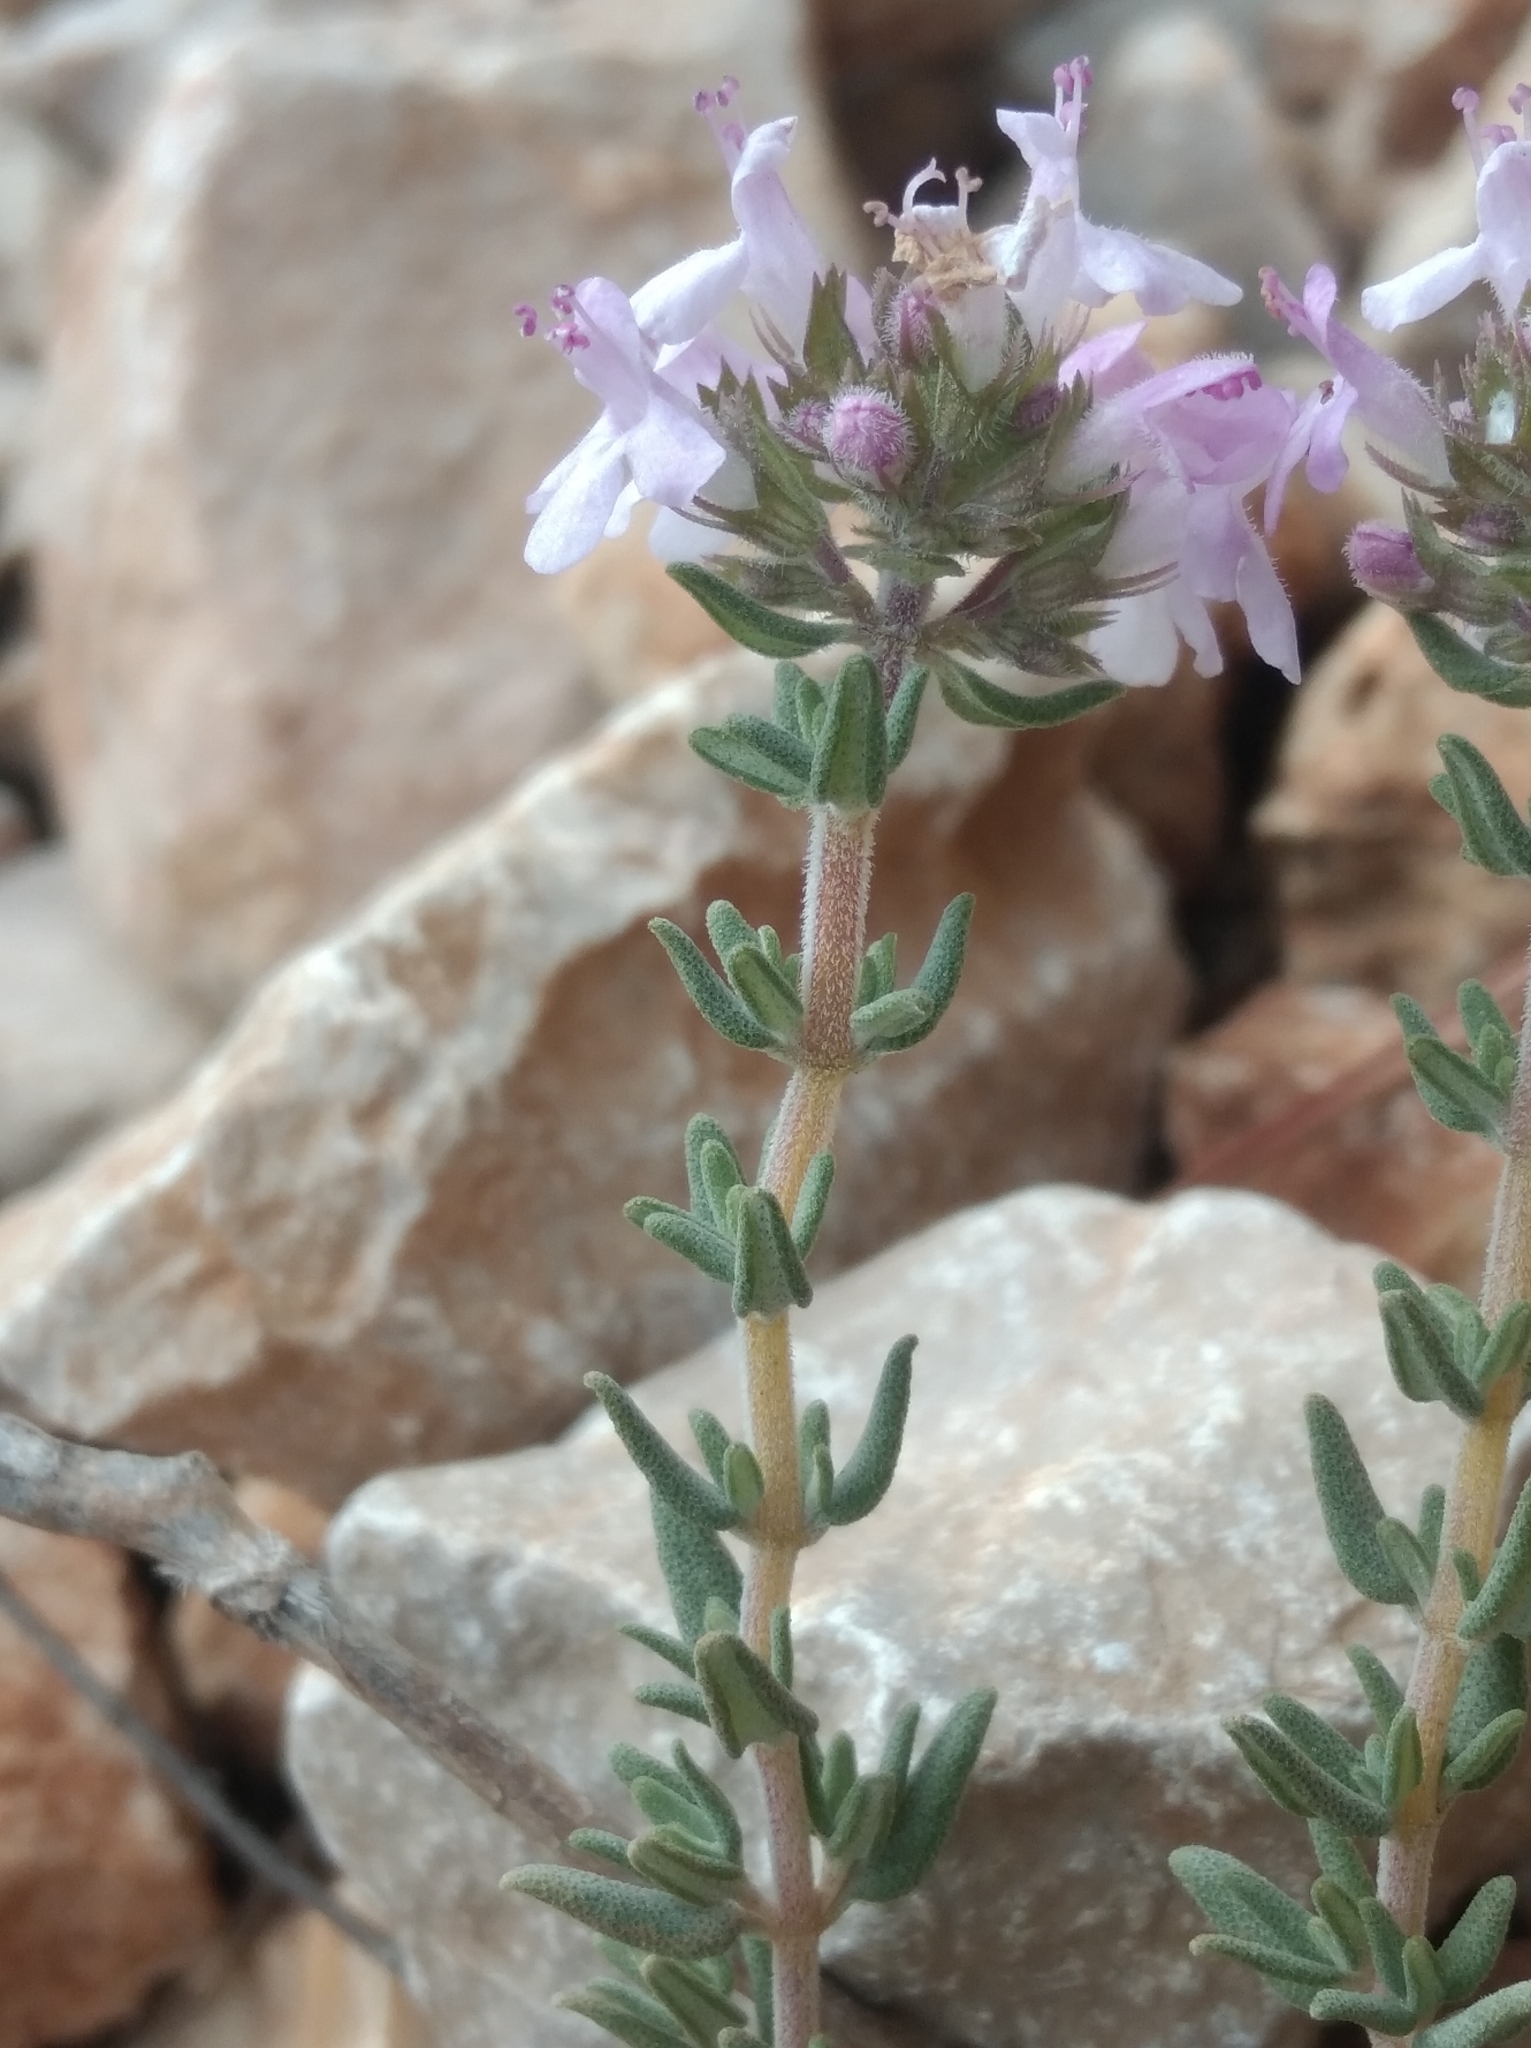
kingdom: Plantae
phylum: Tracheophyta
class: Magnoliopsida
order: Lamiales
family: Lamiaceae
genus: Thymus
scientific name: Thymus vulgaris
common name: Garden thyme
